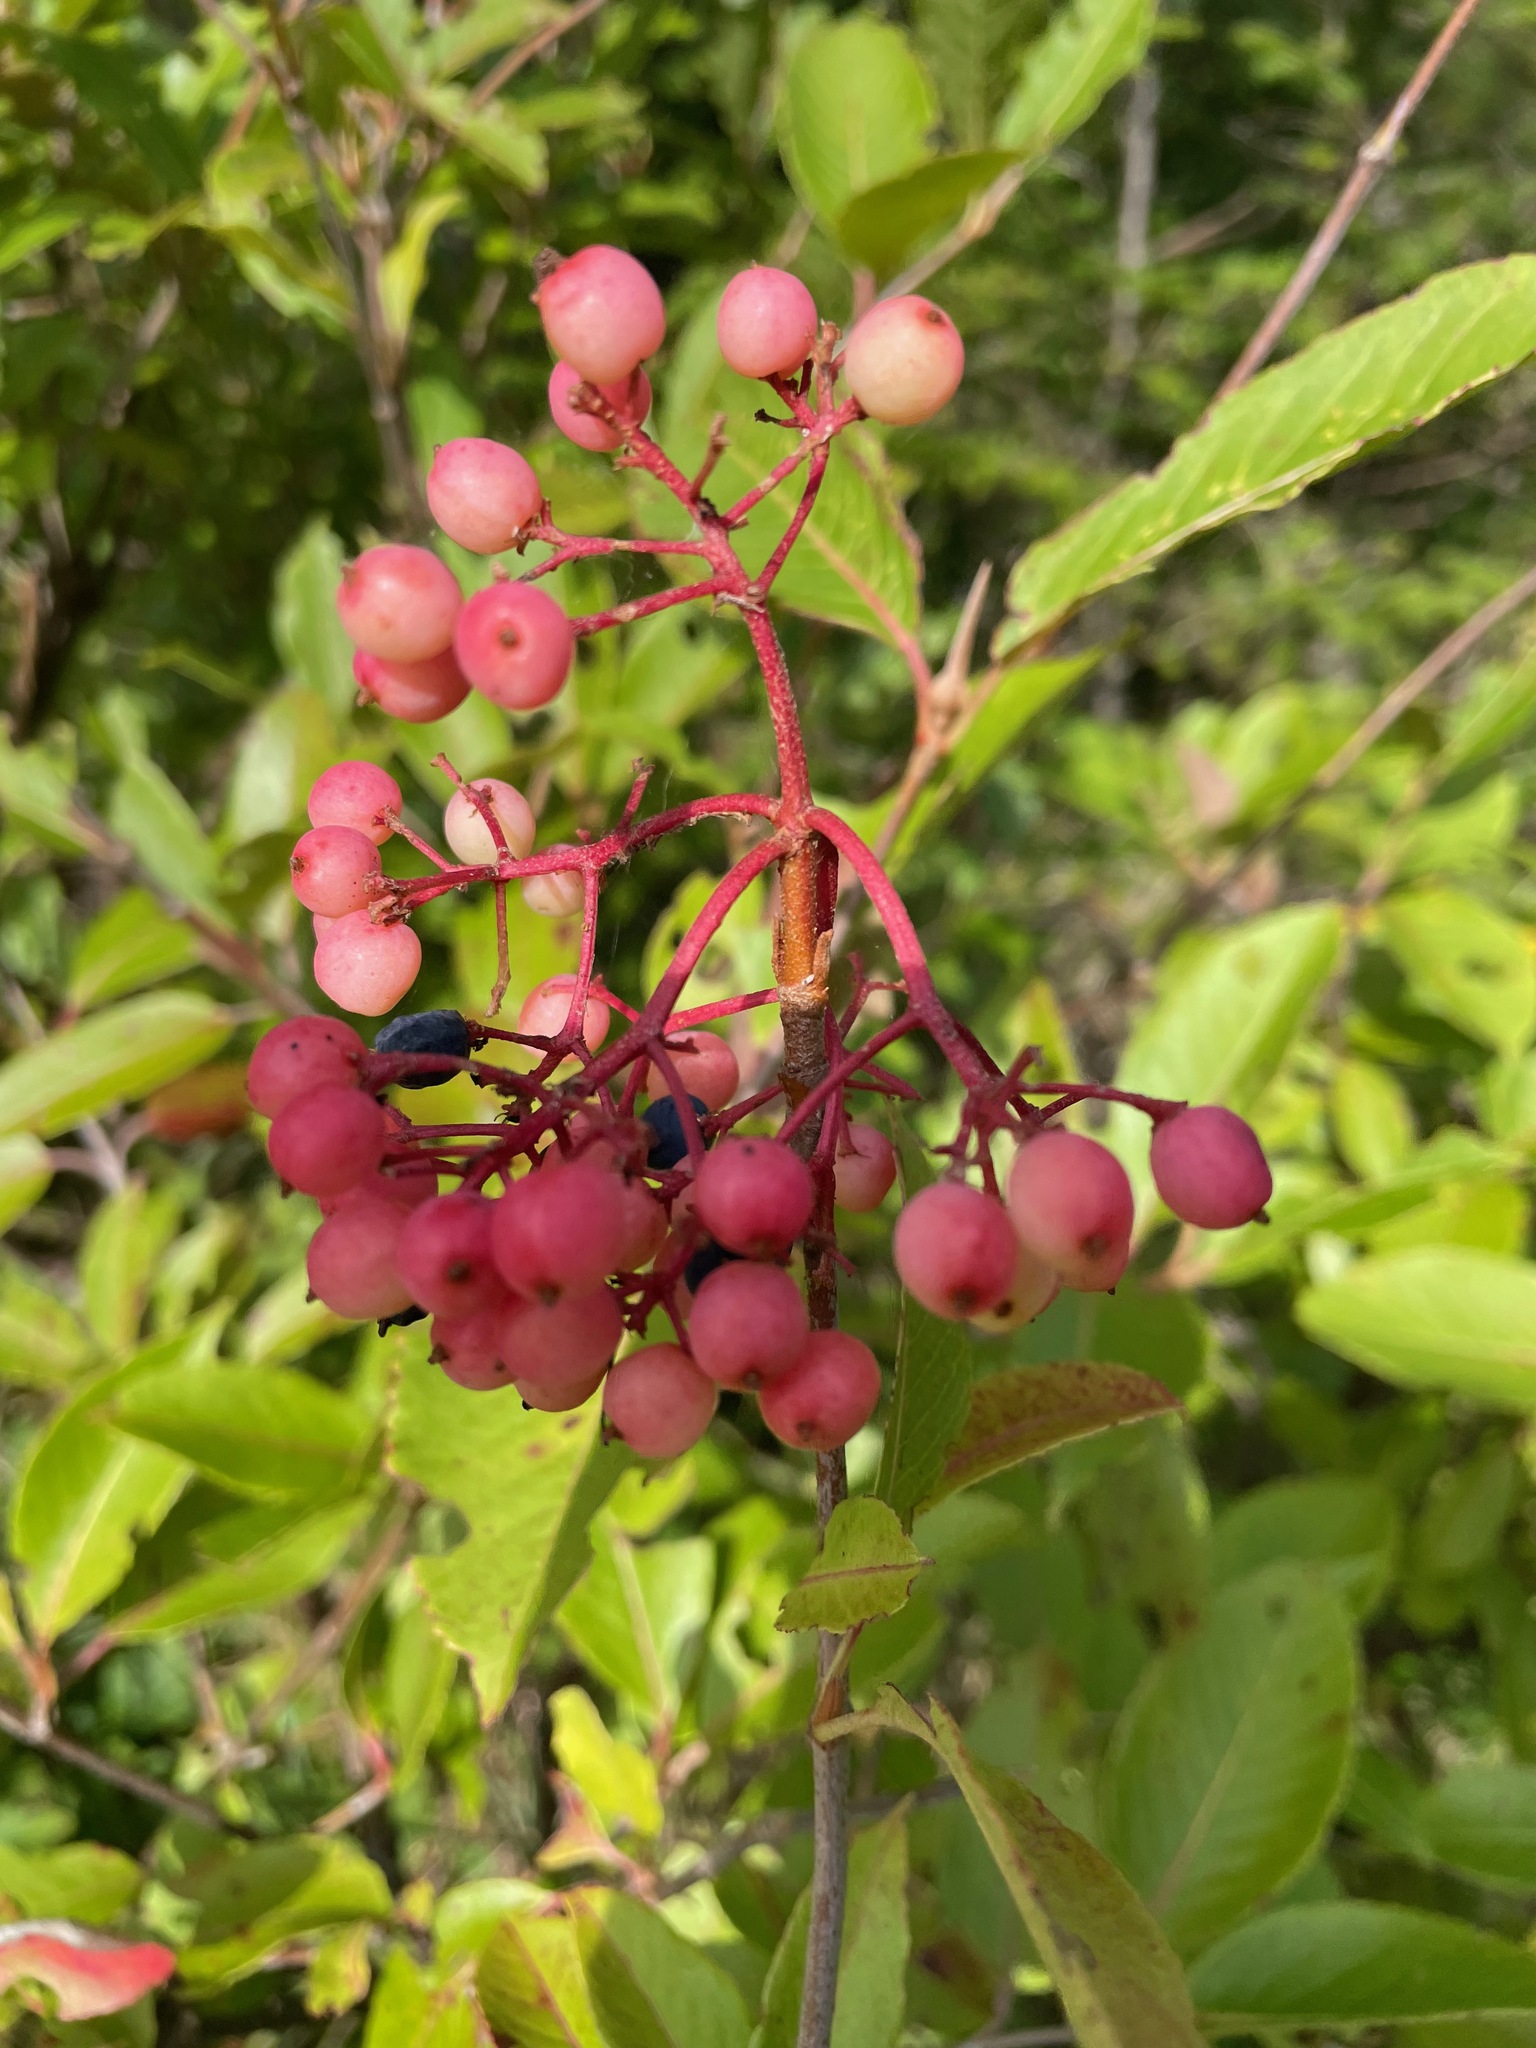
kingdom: Plantae
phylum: Tracheophyta
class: Magnoliopsida
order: Dipsacales
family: Viburnaceae
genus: Viburnum
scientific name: Viburnum cassinoides
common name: Swamp haw
